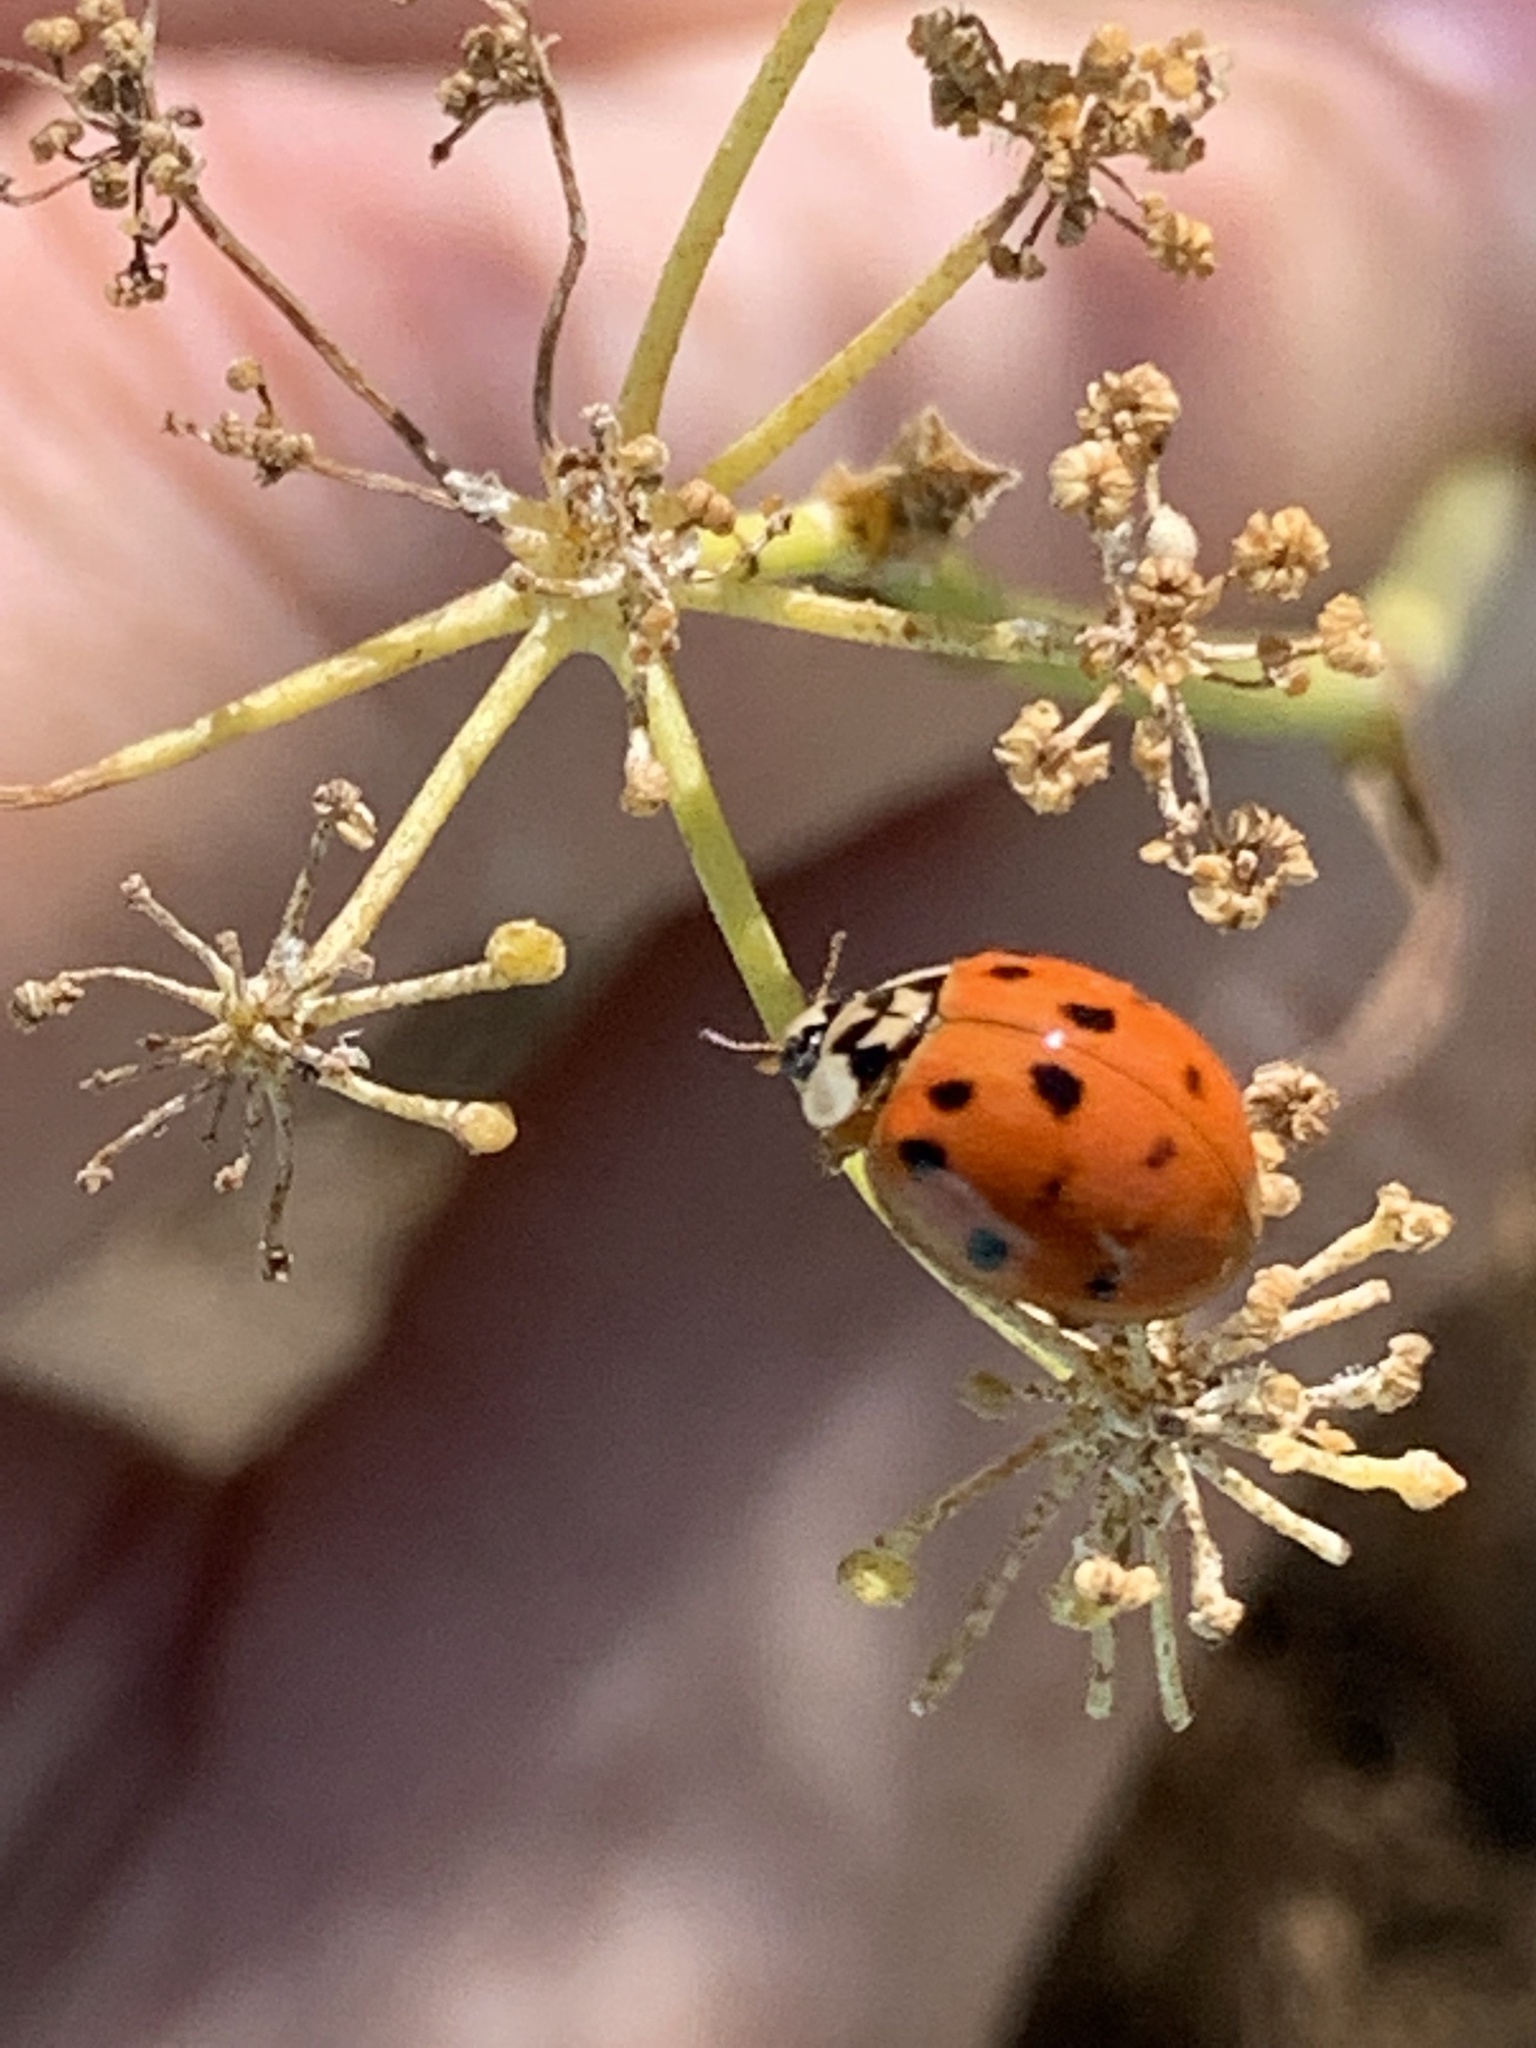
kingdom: Animalia
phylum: Arthropoda
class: Insecta
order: Coleoptera
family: Coccinellidae
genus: Harmonia
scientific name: Harmonia axyridis
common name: Harlequin ladybird
